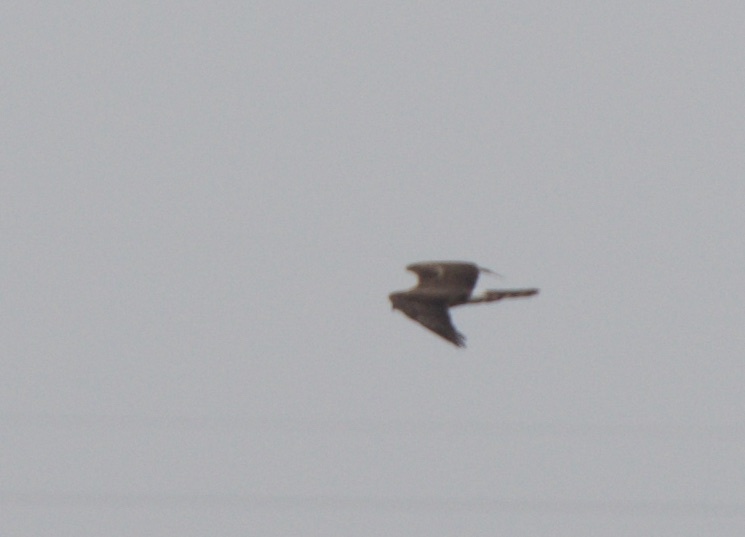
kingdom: Animalia
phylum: Chordata
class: Aves
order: Accipitriformes
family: Accipitridae
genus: Circus
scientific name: Circus cyaneus
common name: Hen harrier
